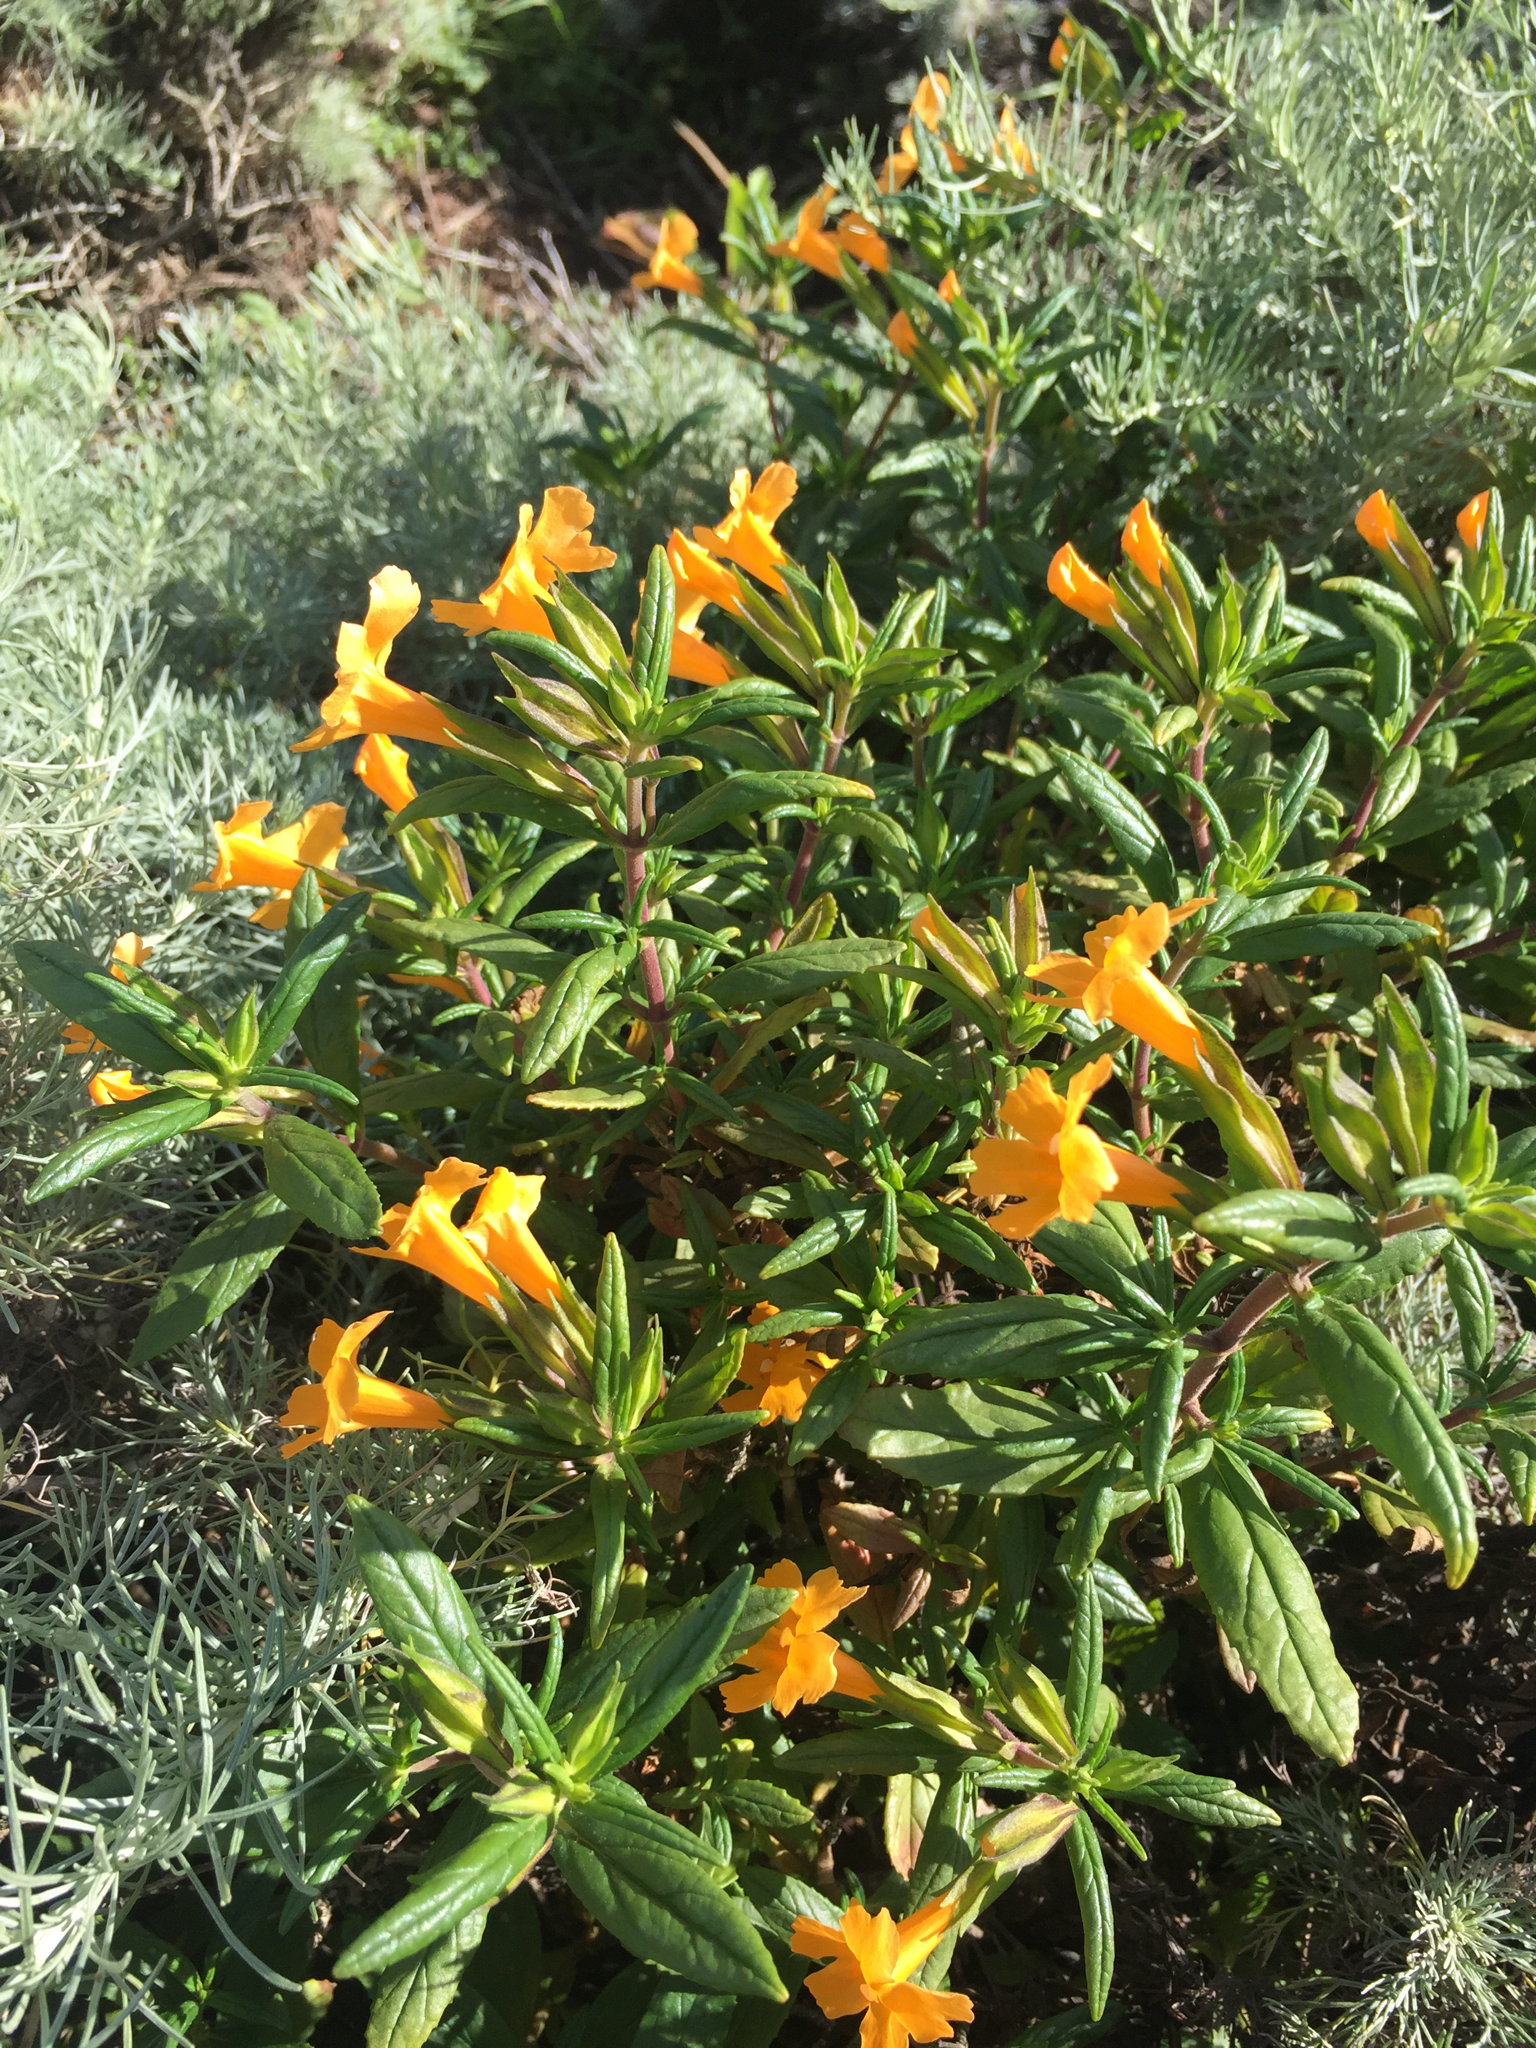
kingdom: Plantae
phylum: Tracheophyta
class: Magnoliopsida
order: Lamiales
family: Phrymaceae
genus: Diplacus
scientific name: Diplacus aurantiacus
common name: Bush monkey-flower
